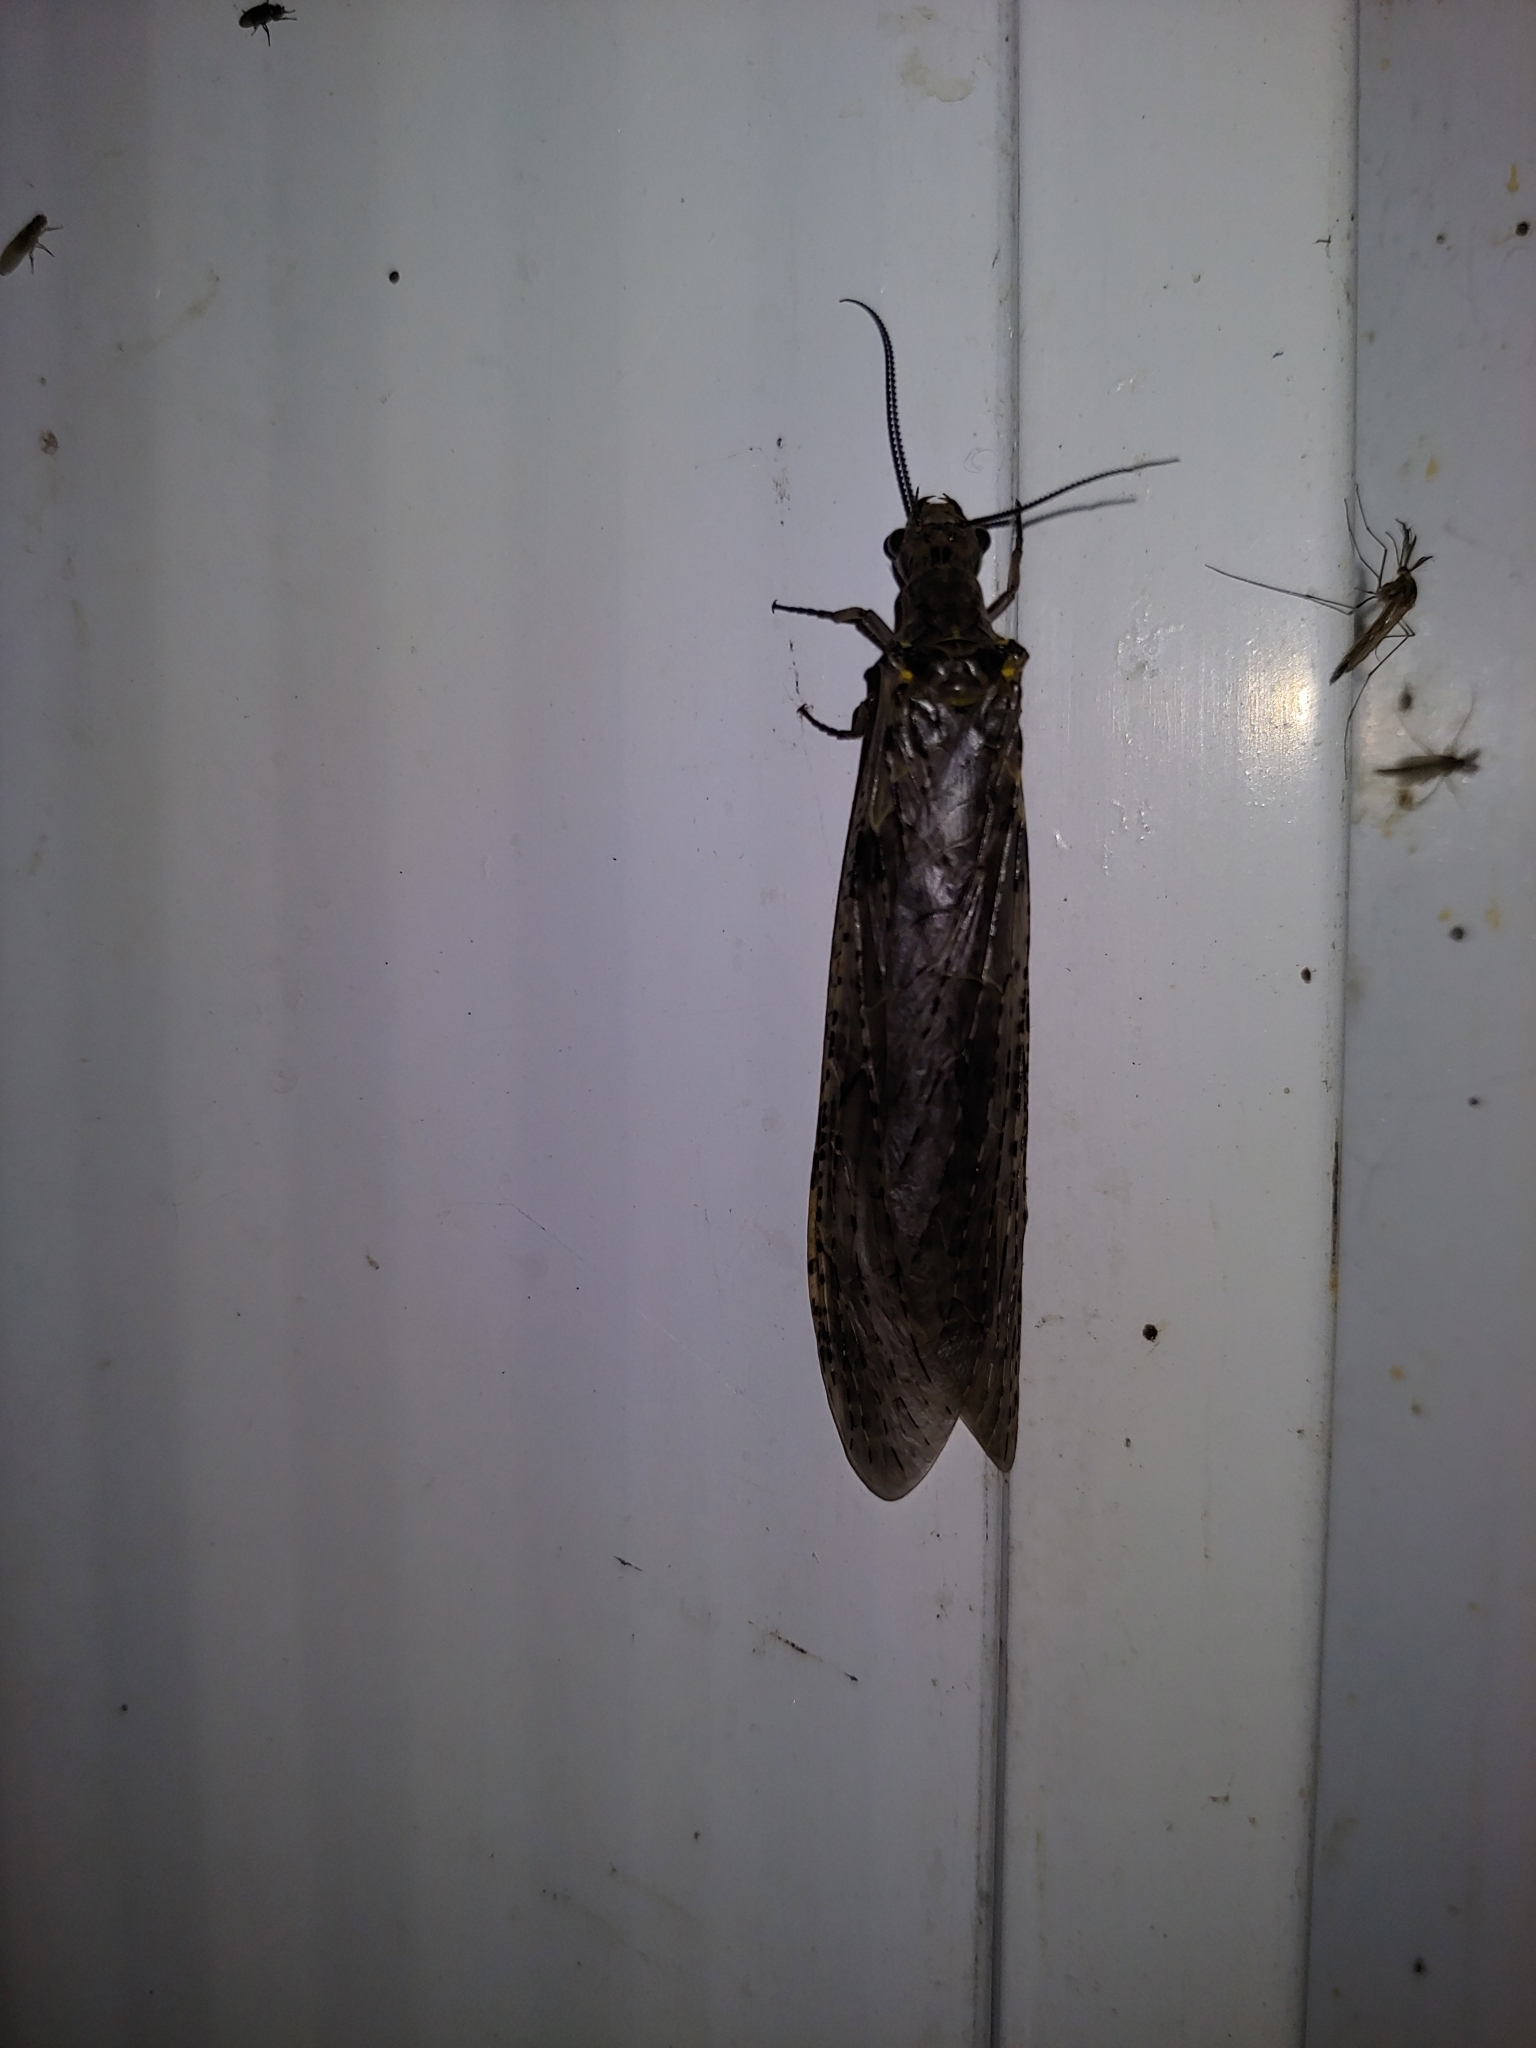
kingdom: Animalia
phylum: Arthropoda
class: Insecta
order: Megaloptera
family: Corydalidae
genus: Chauliodes
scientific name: Chauliodes rastricornis
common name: Spring fishfly
